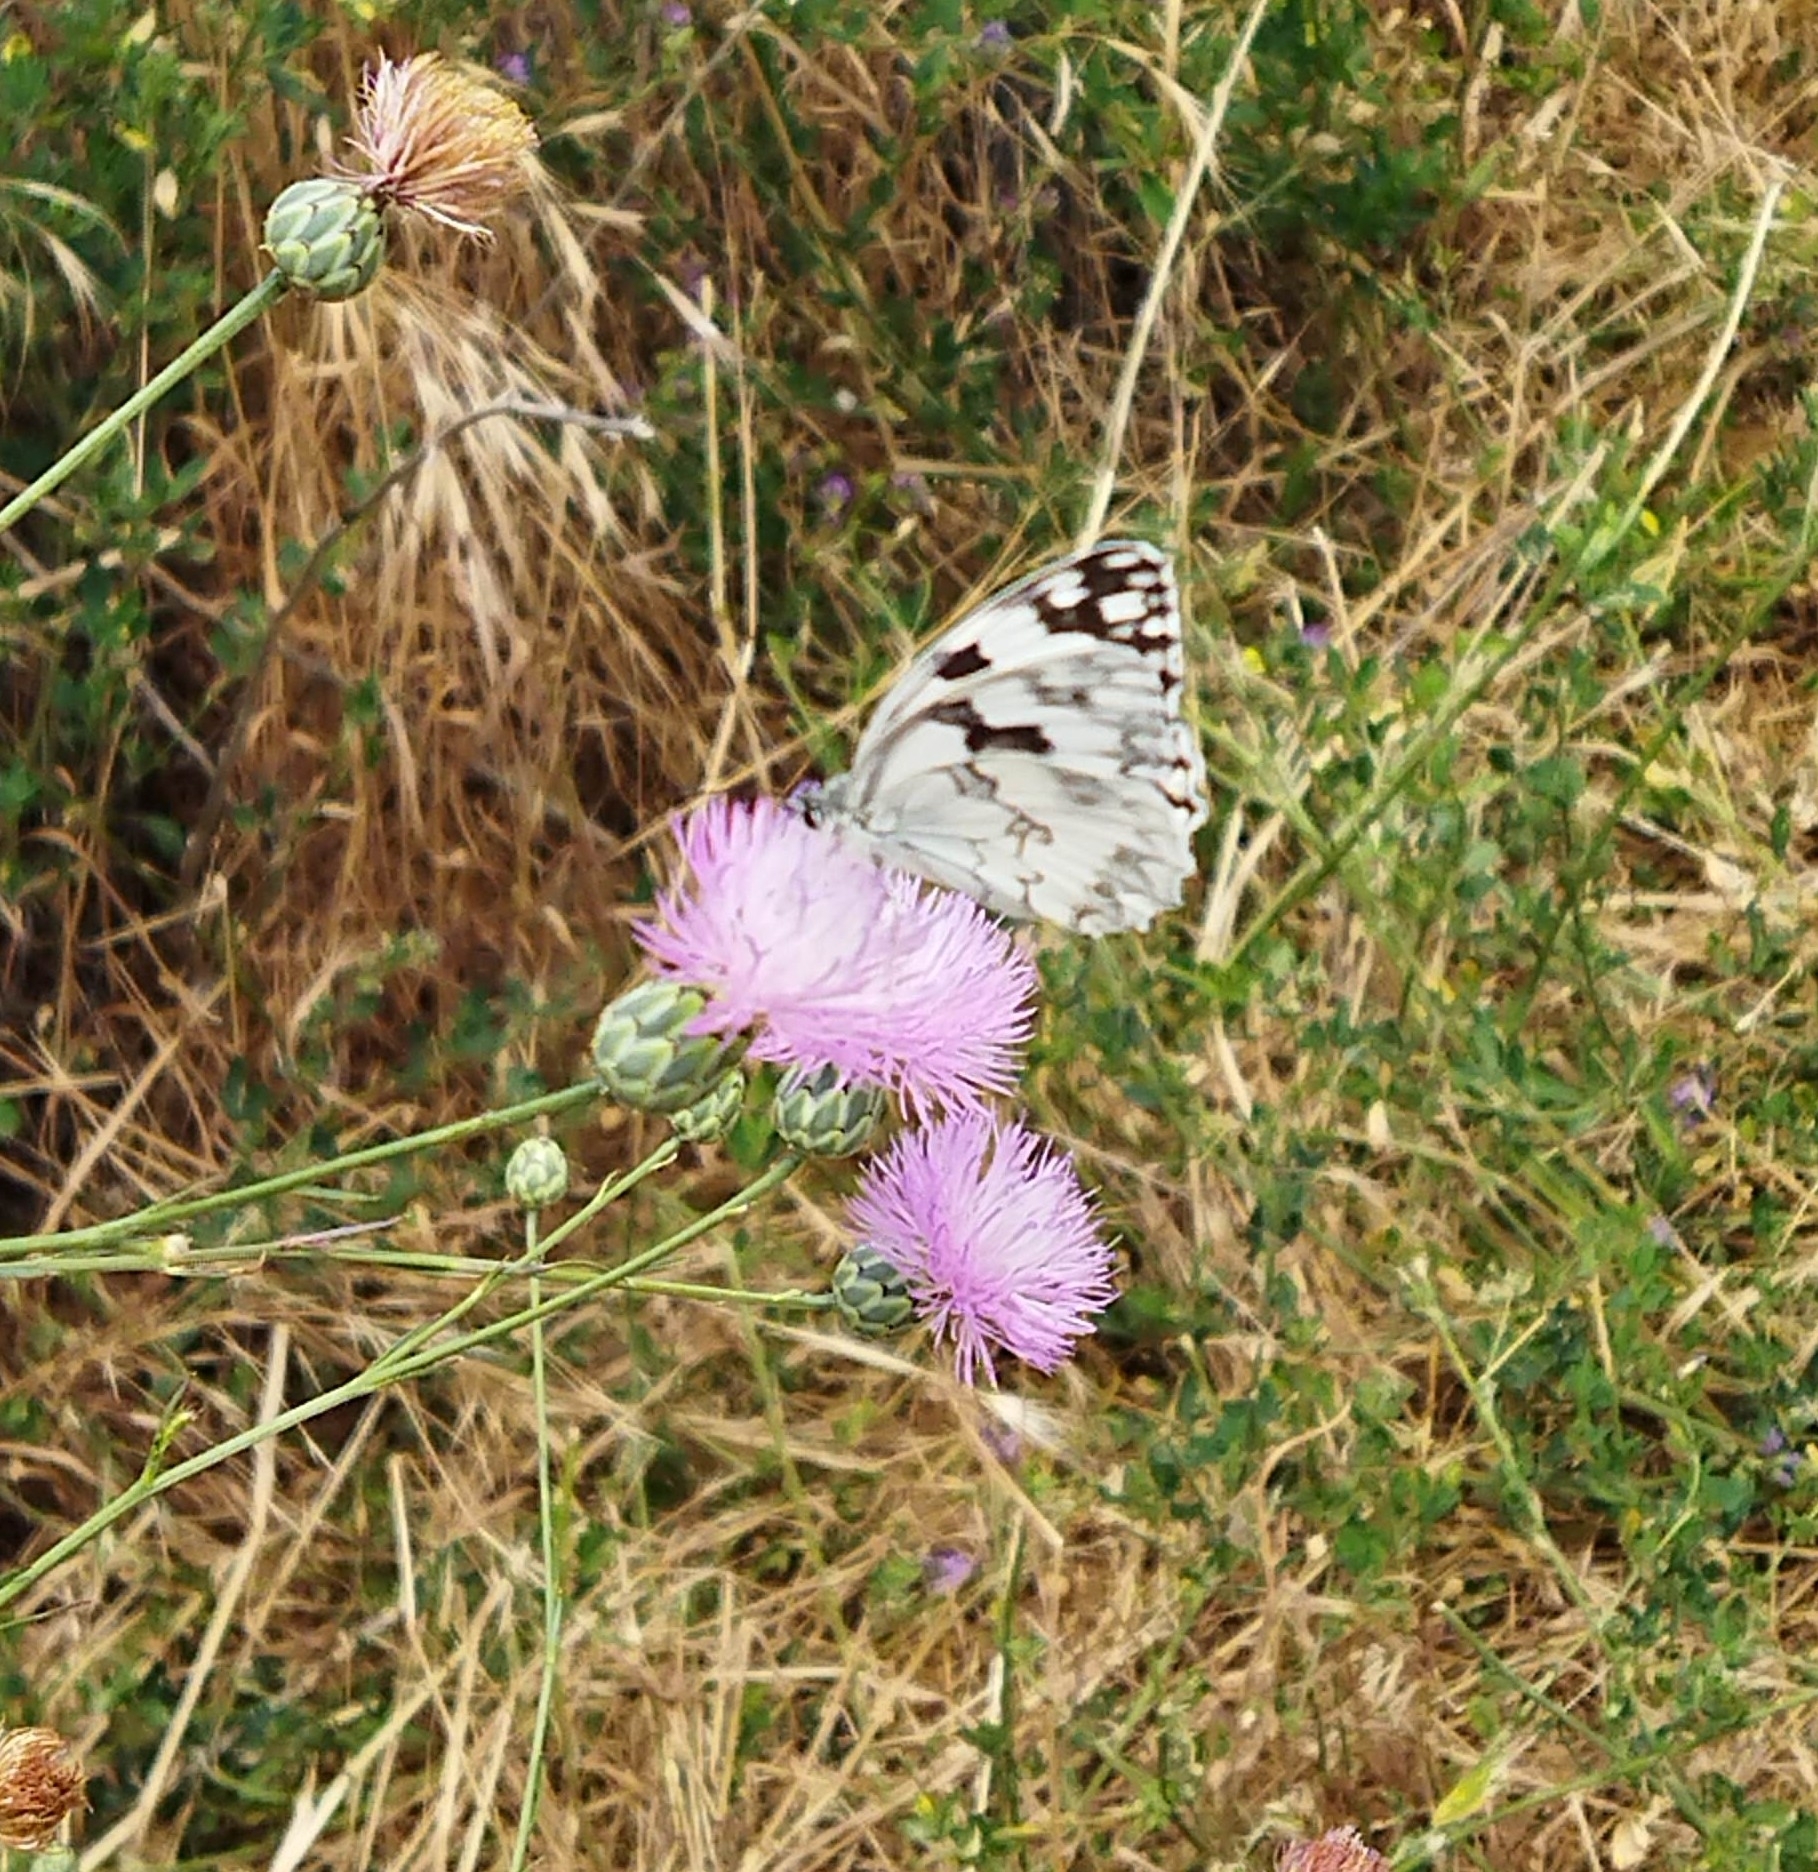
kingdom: Animalia
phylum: Arthropoda
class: Insecta
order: Lepidoptera
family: Nymphalidae
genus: Melanargia
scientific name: Melanargia lachesis
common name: Iberian marbled white
